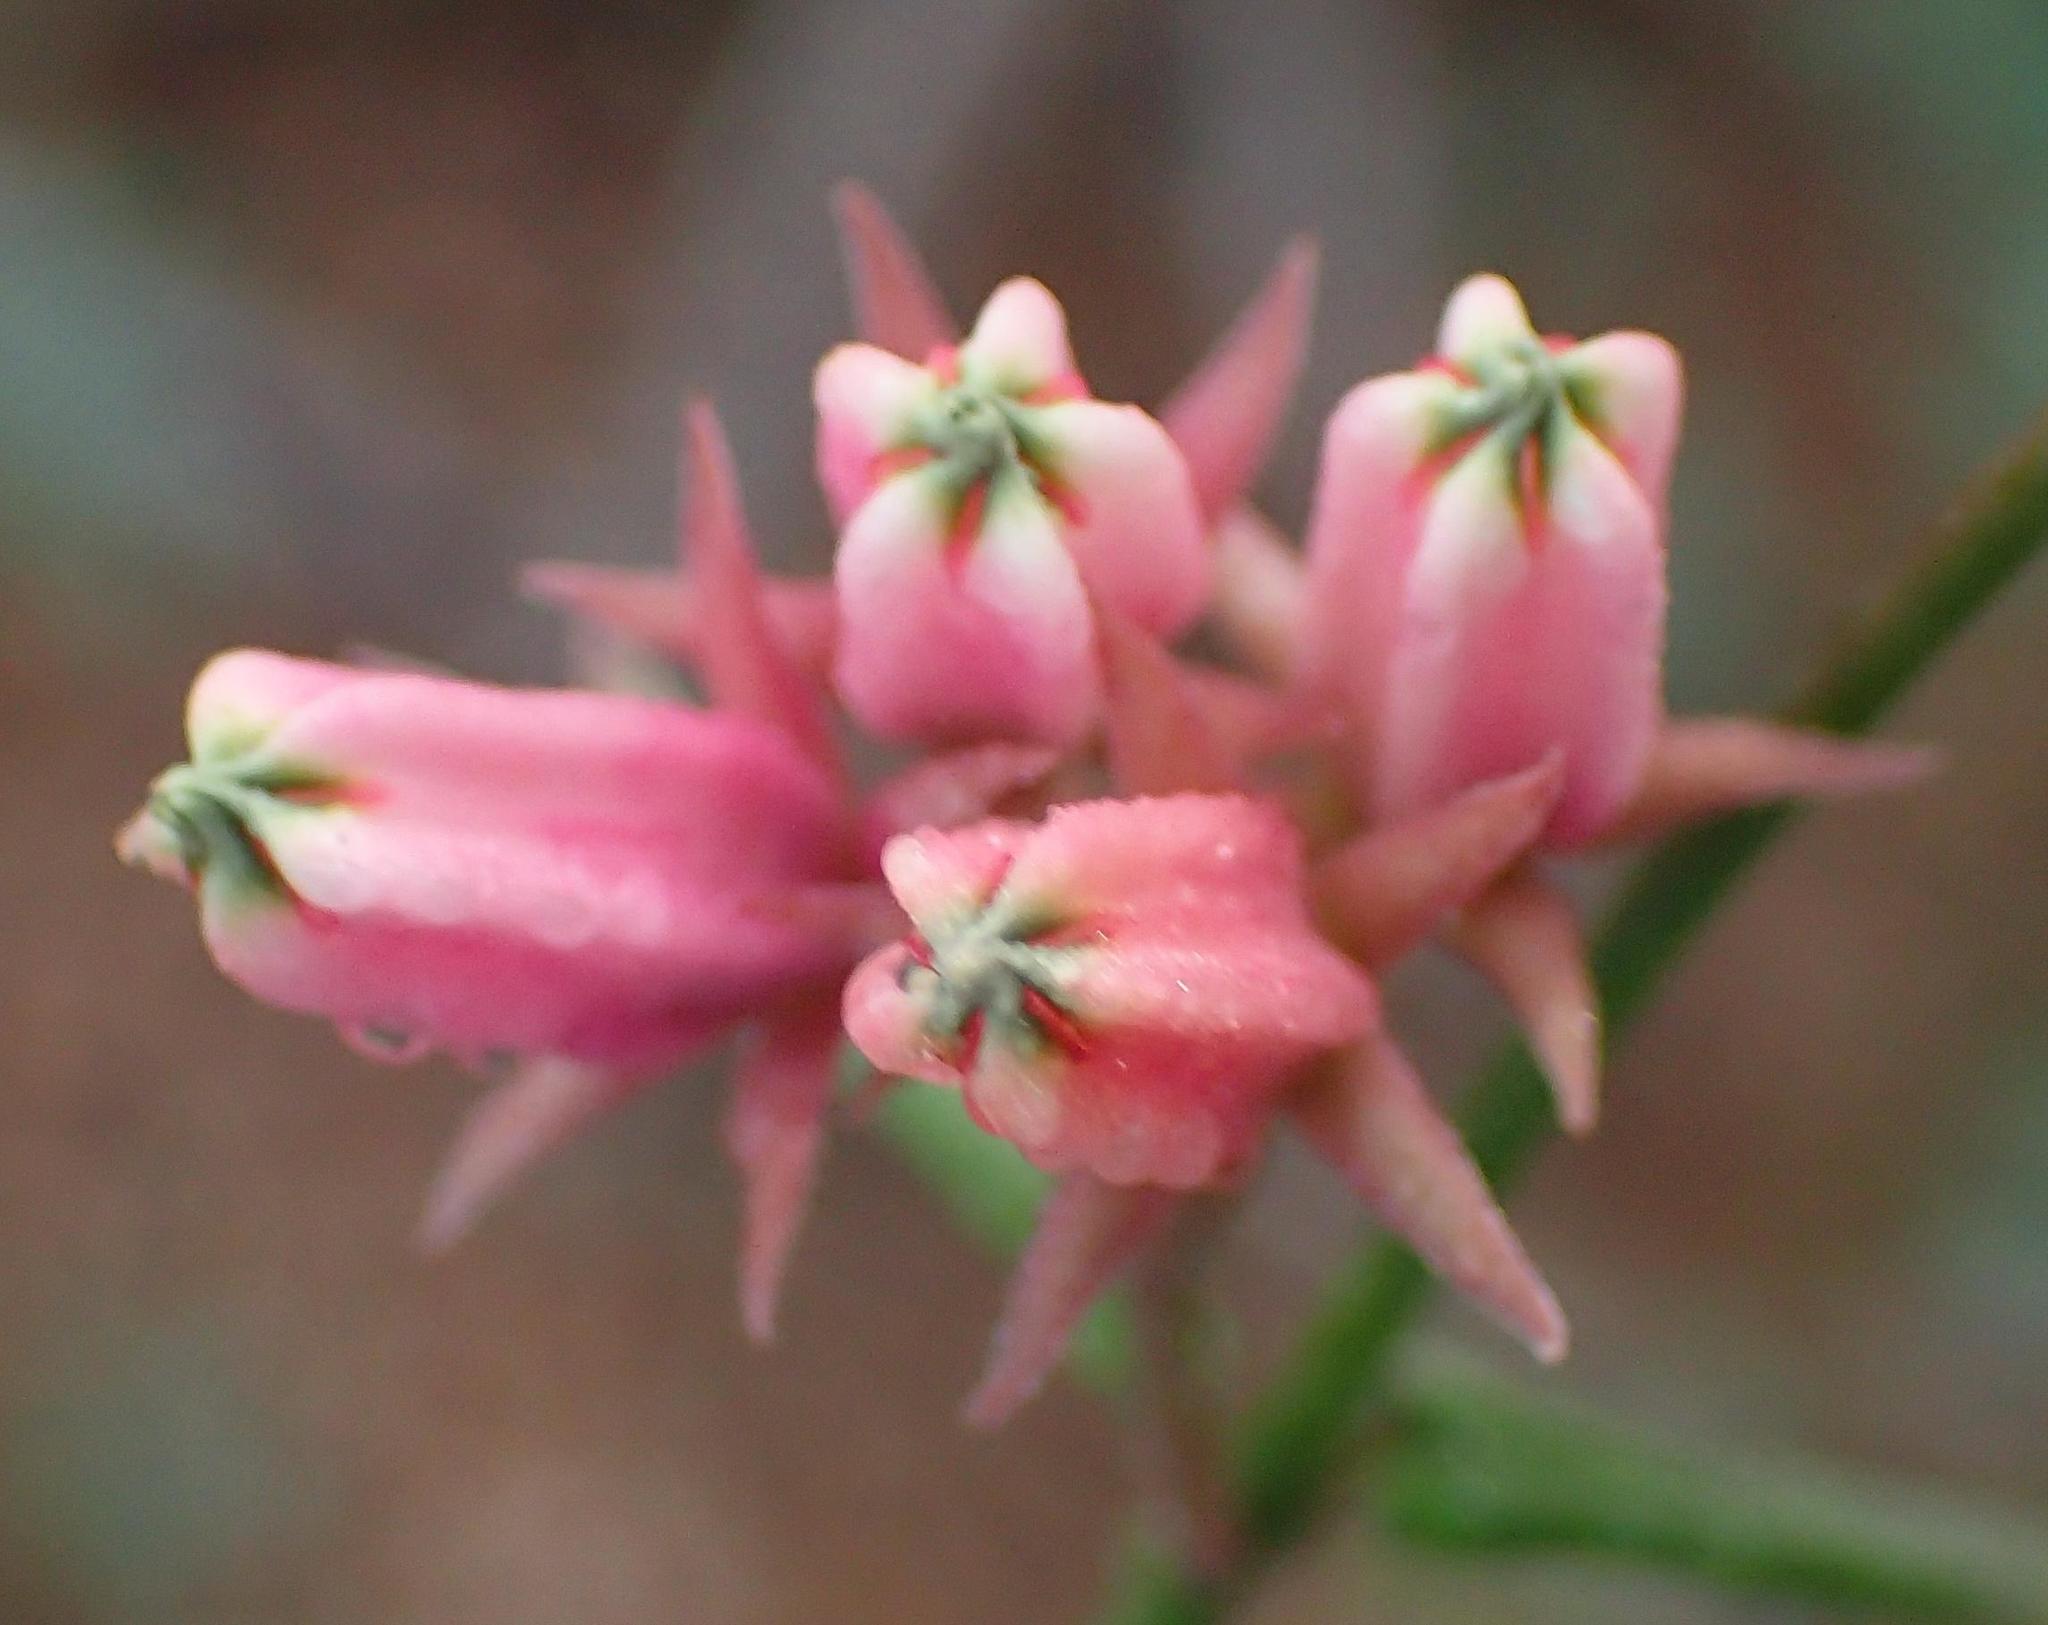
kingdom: Plantae
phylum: Tracheophyta
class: Magnoliopsida
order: Gentianales
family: Apocynaceae
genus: Microloma
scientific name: Microloma sagittatum
